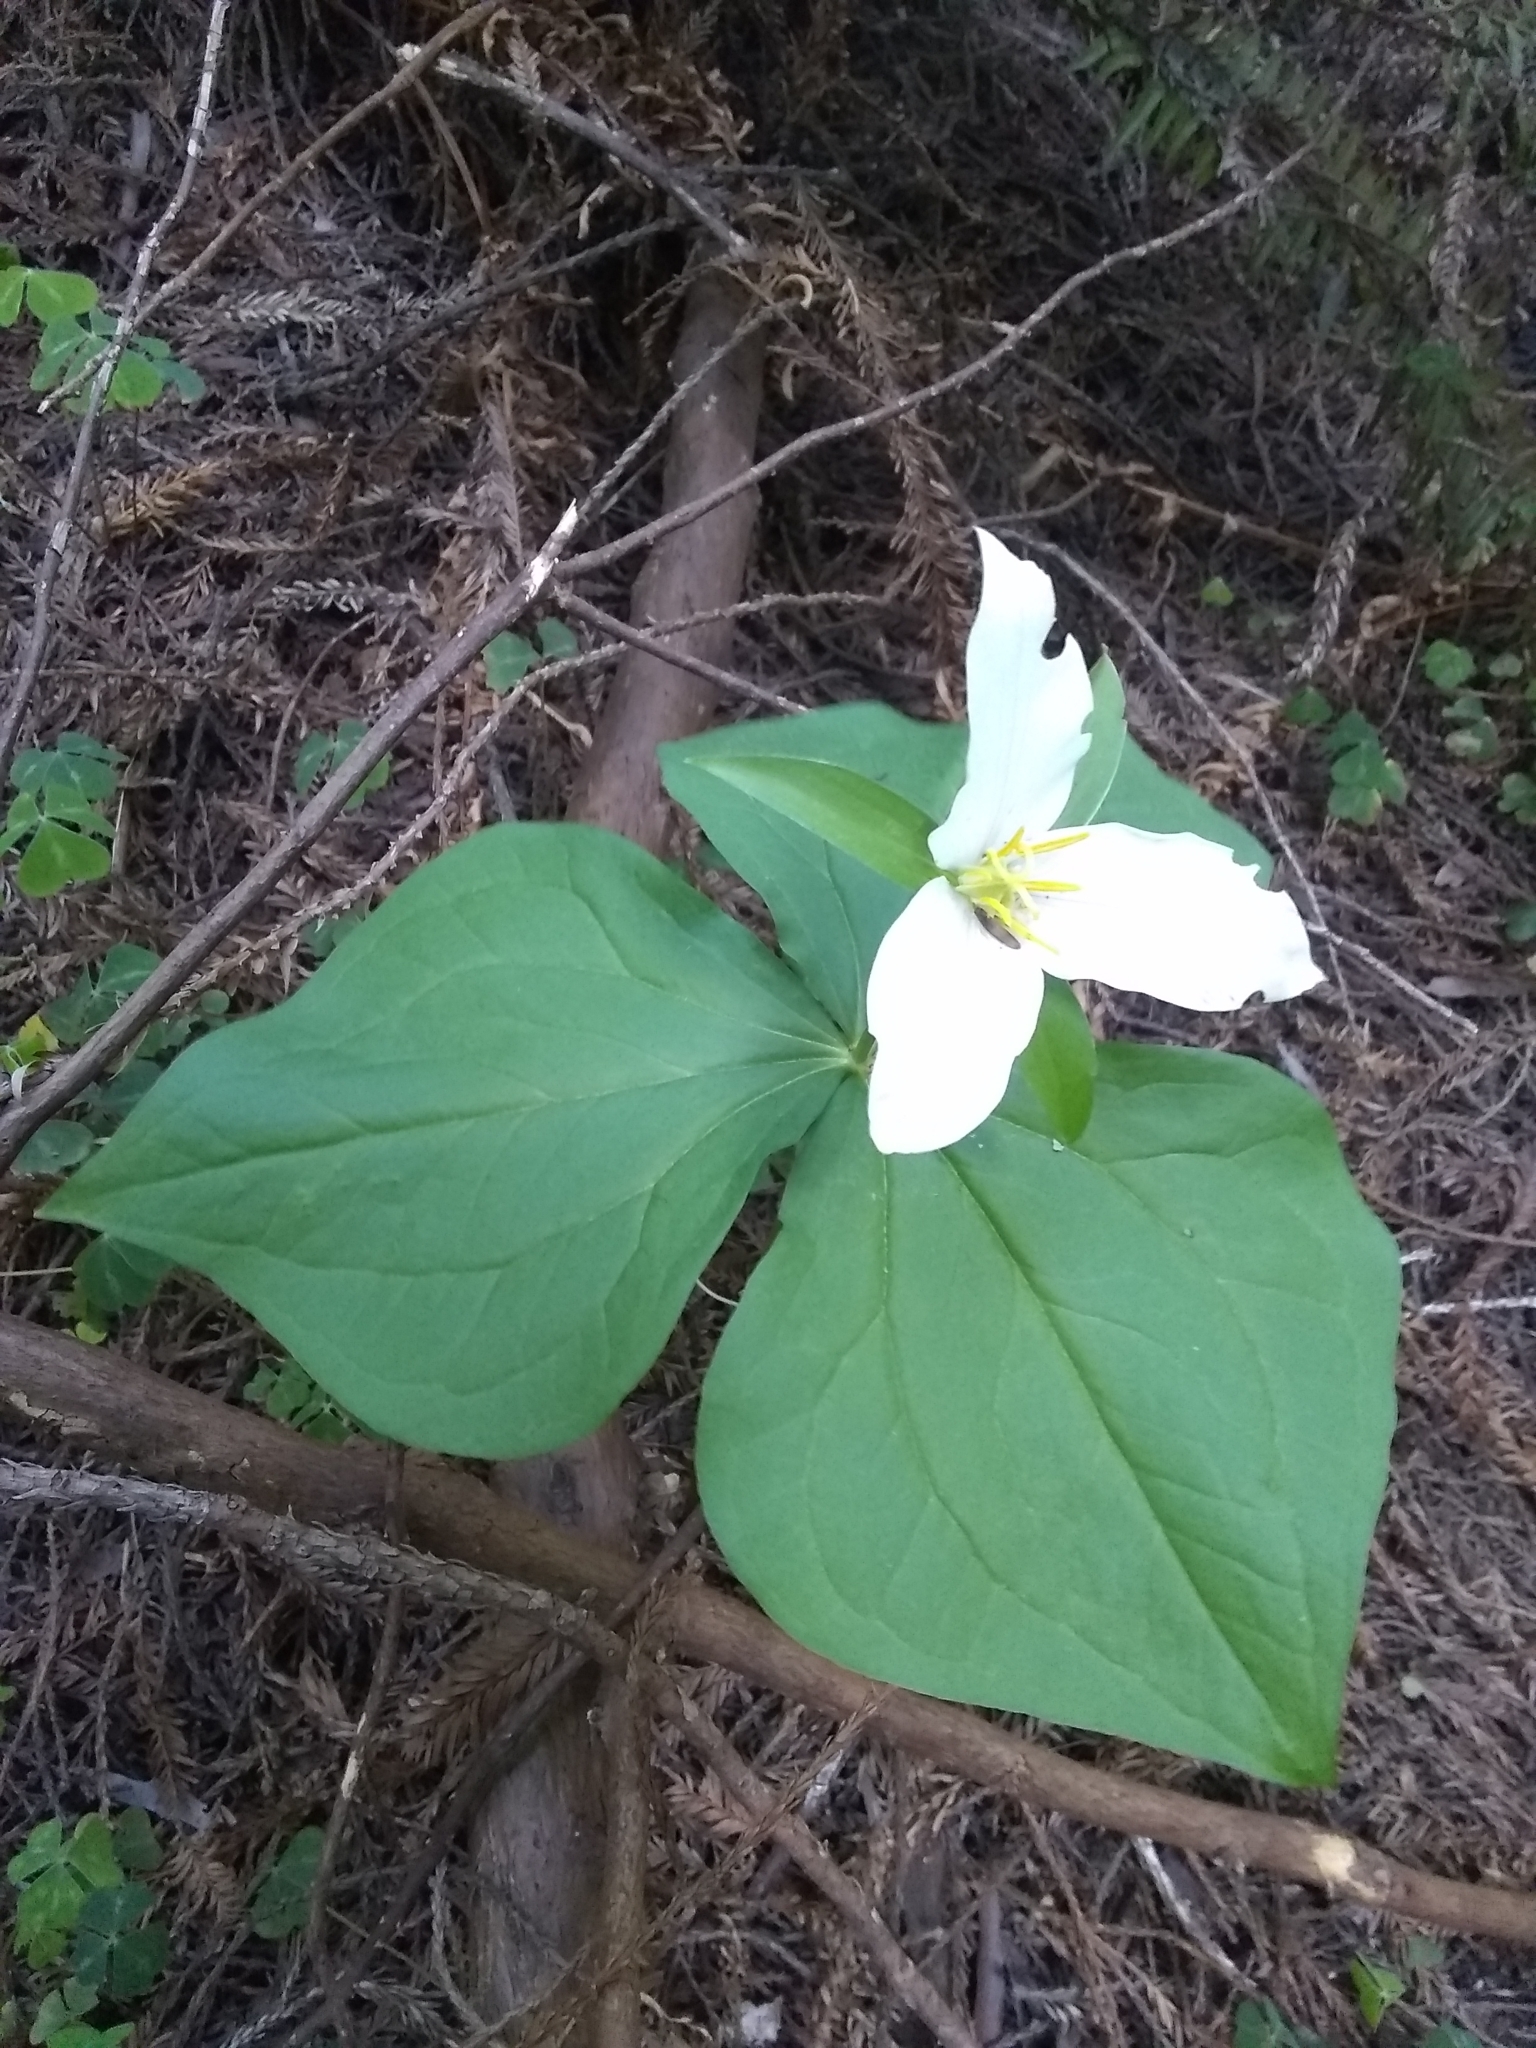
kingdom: Plantae
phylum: Tracheophyta
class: Liliopsida
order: Liliales
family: Melanthiaceae
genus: Trillium
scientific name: Trillium ovatum
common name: Pacific trillium
